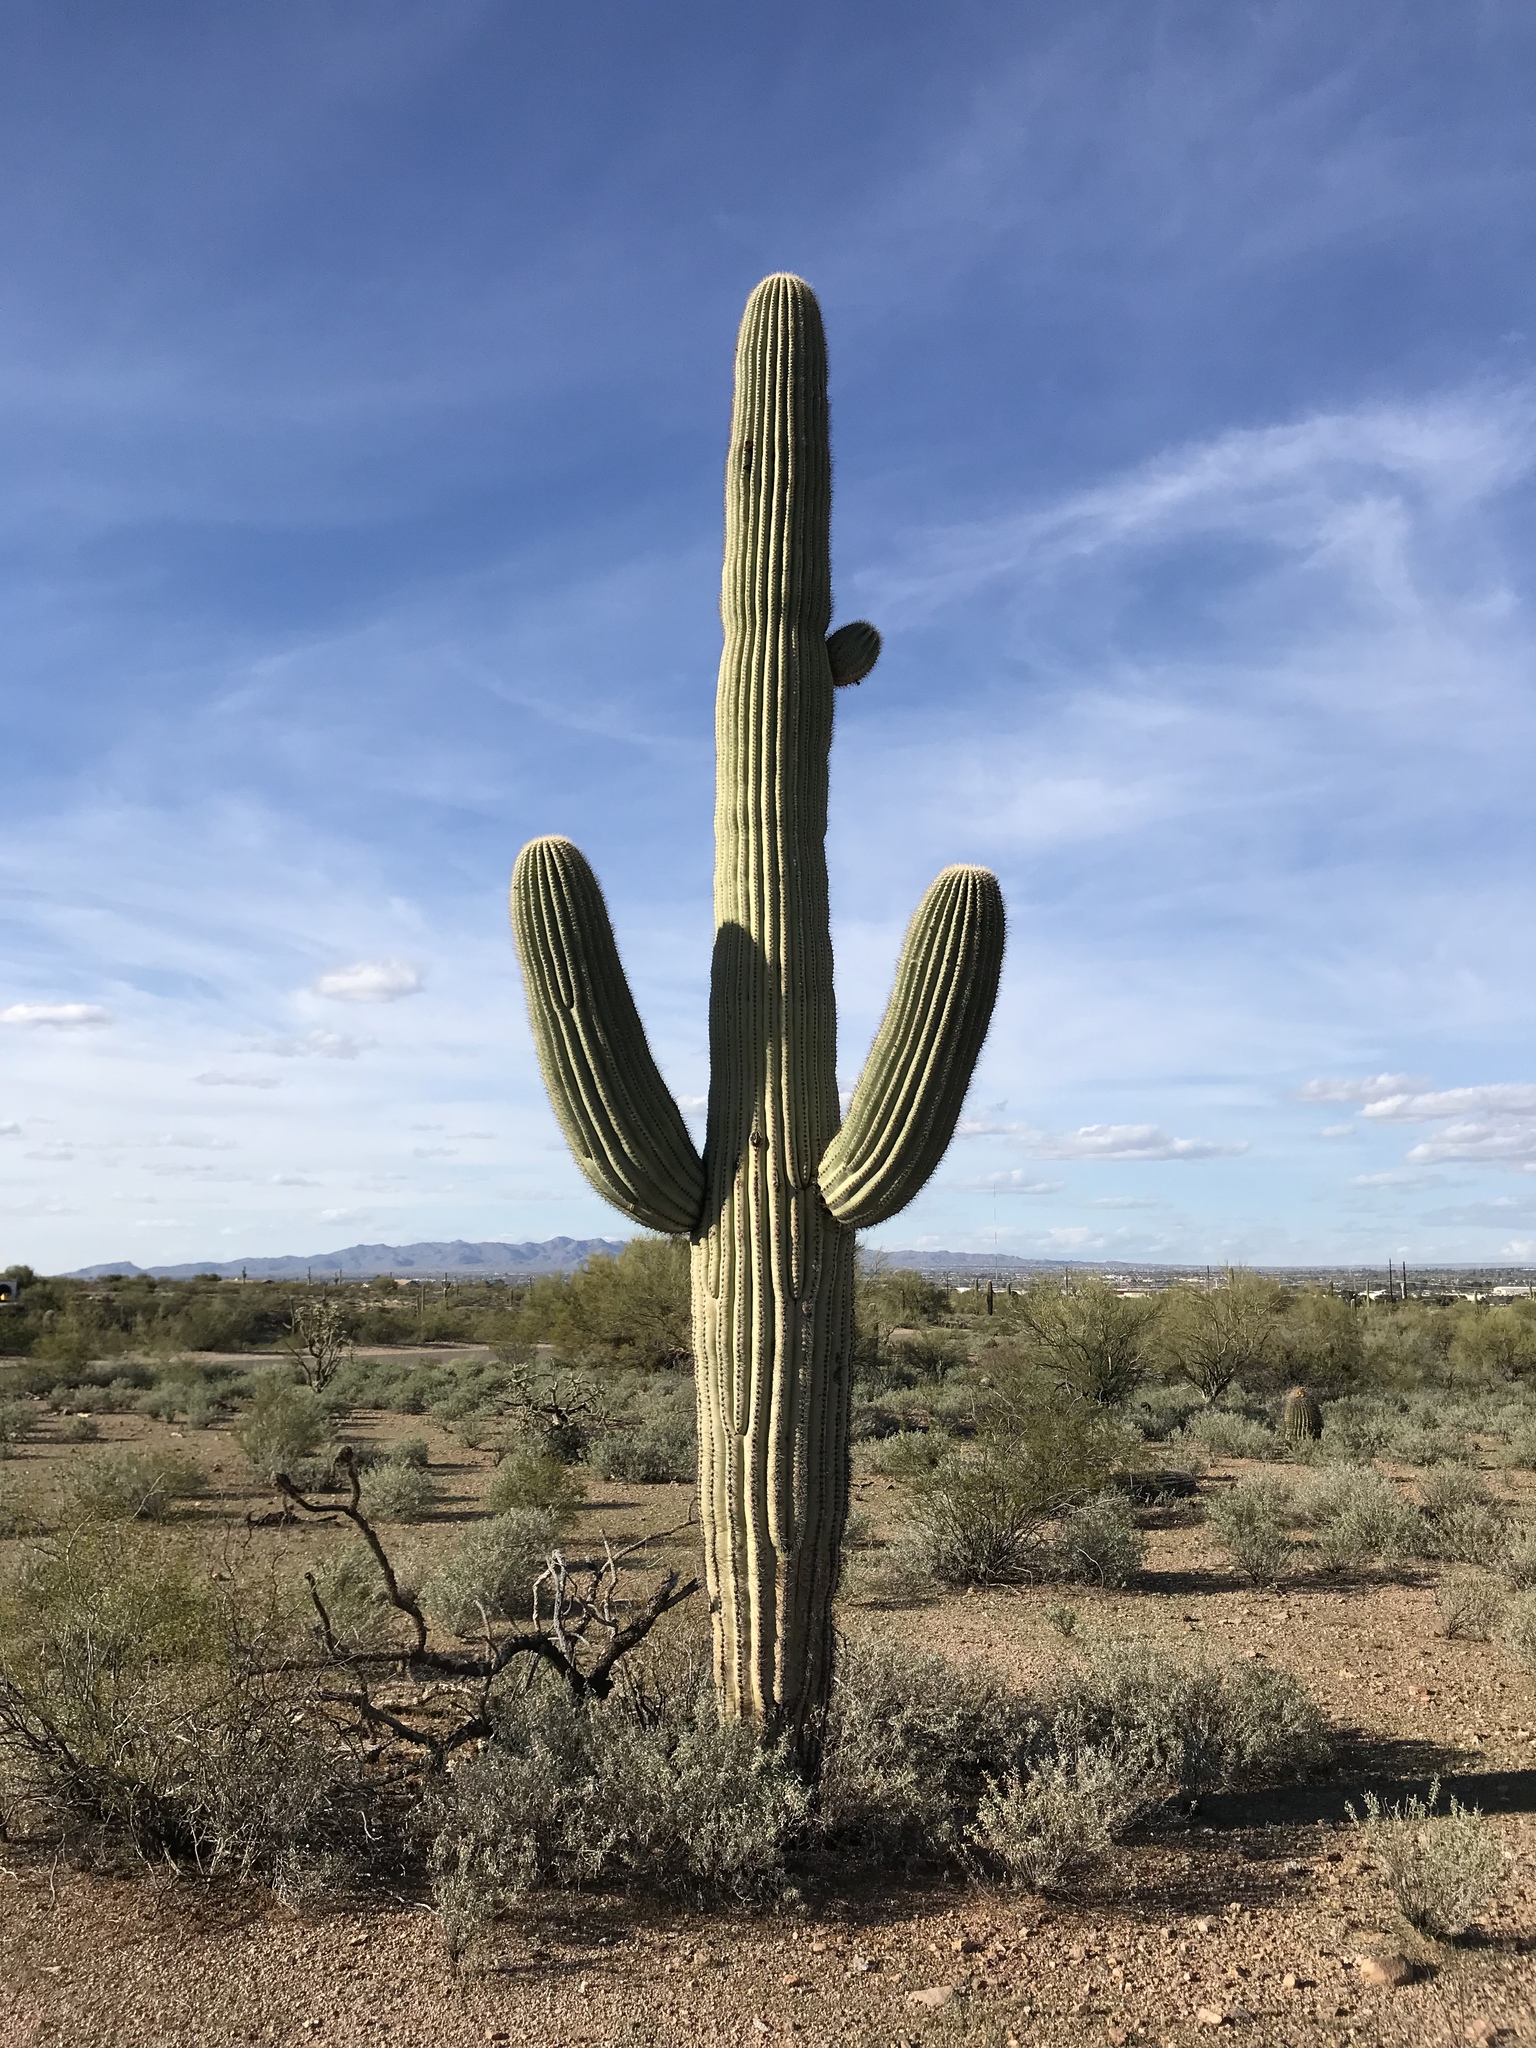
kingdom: Plantae
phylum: Tracheophyta
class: Magnoliopsida
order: Caryophyllales
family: Cactaceae
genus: Carnegiea
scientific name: Carnegiea gigantea
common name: Saguaro
